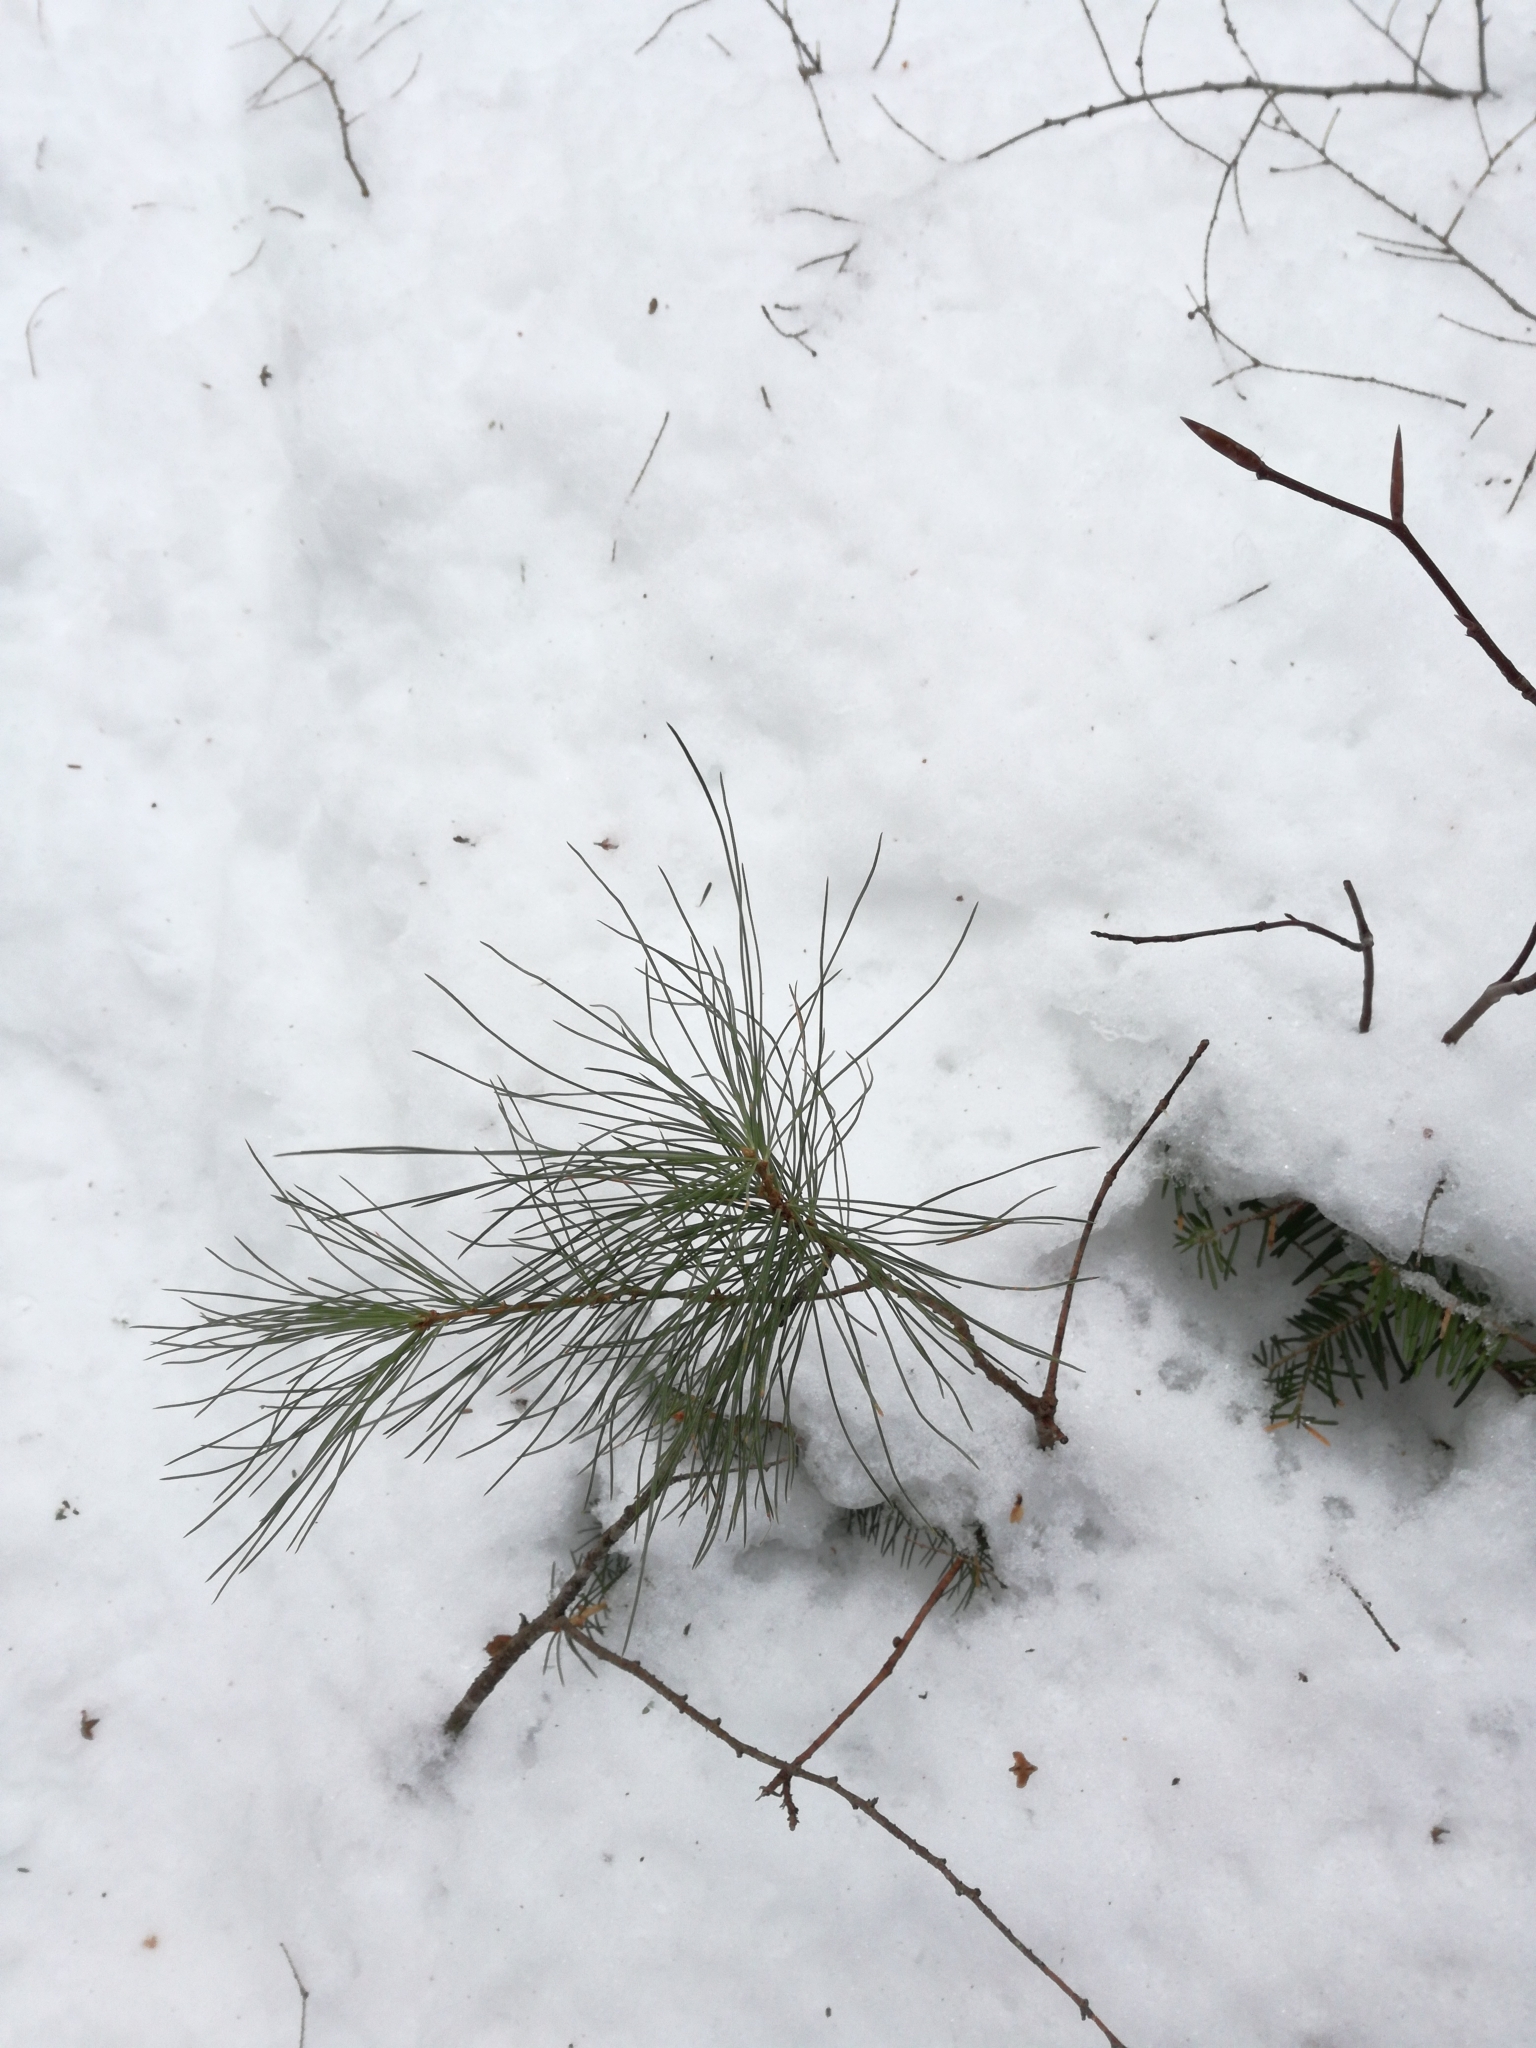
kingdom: Plantae
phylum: Tracheophyta
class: Pinopsida
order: Pinales
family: Pinaceae
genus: Pinus
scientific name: Pinus strobus
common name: Weymouth pine
